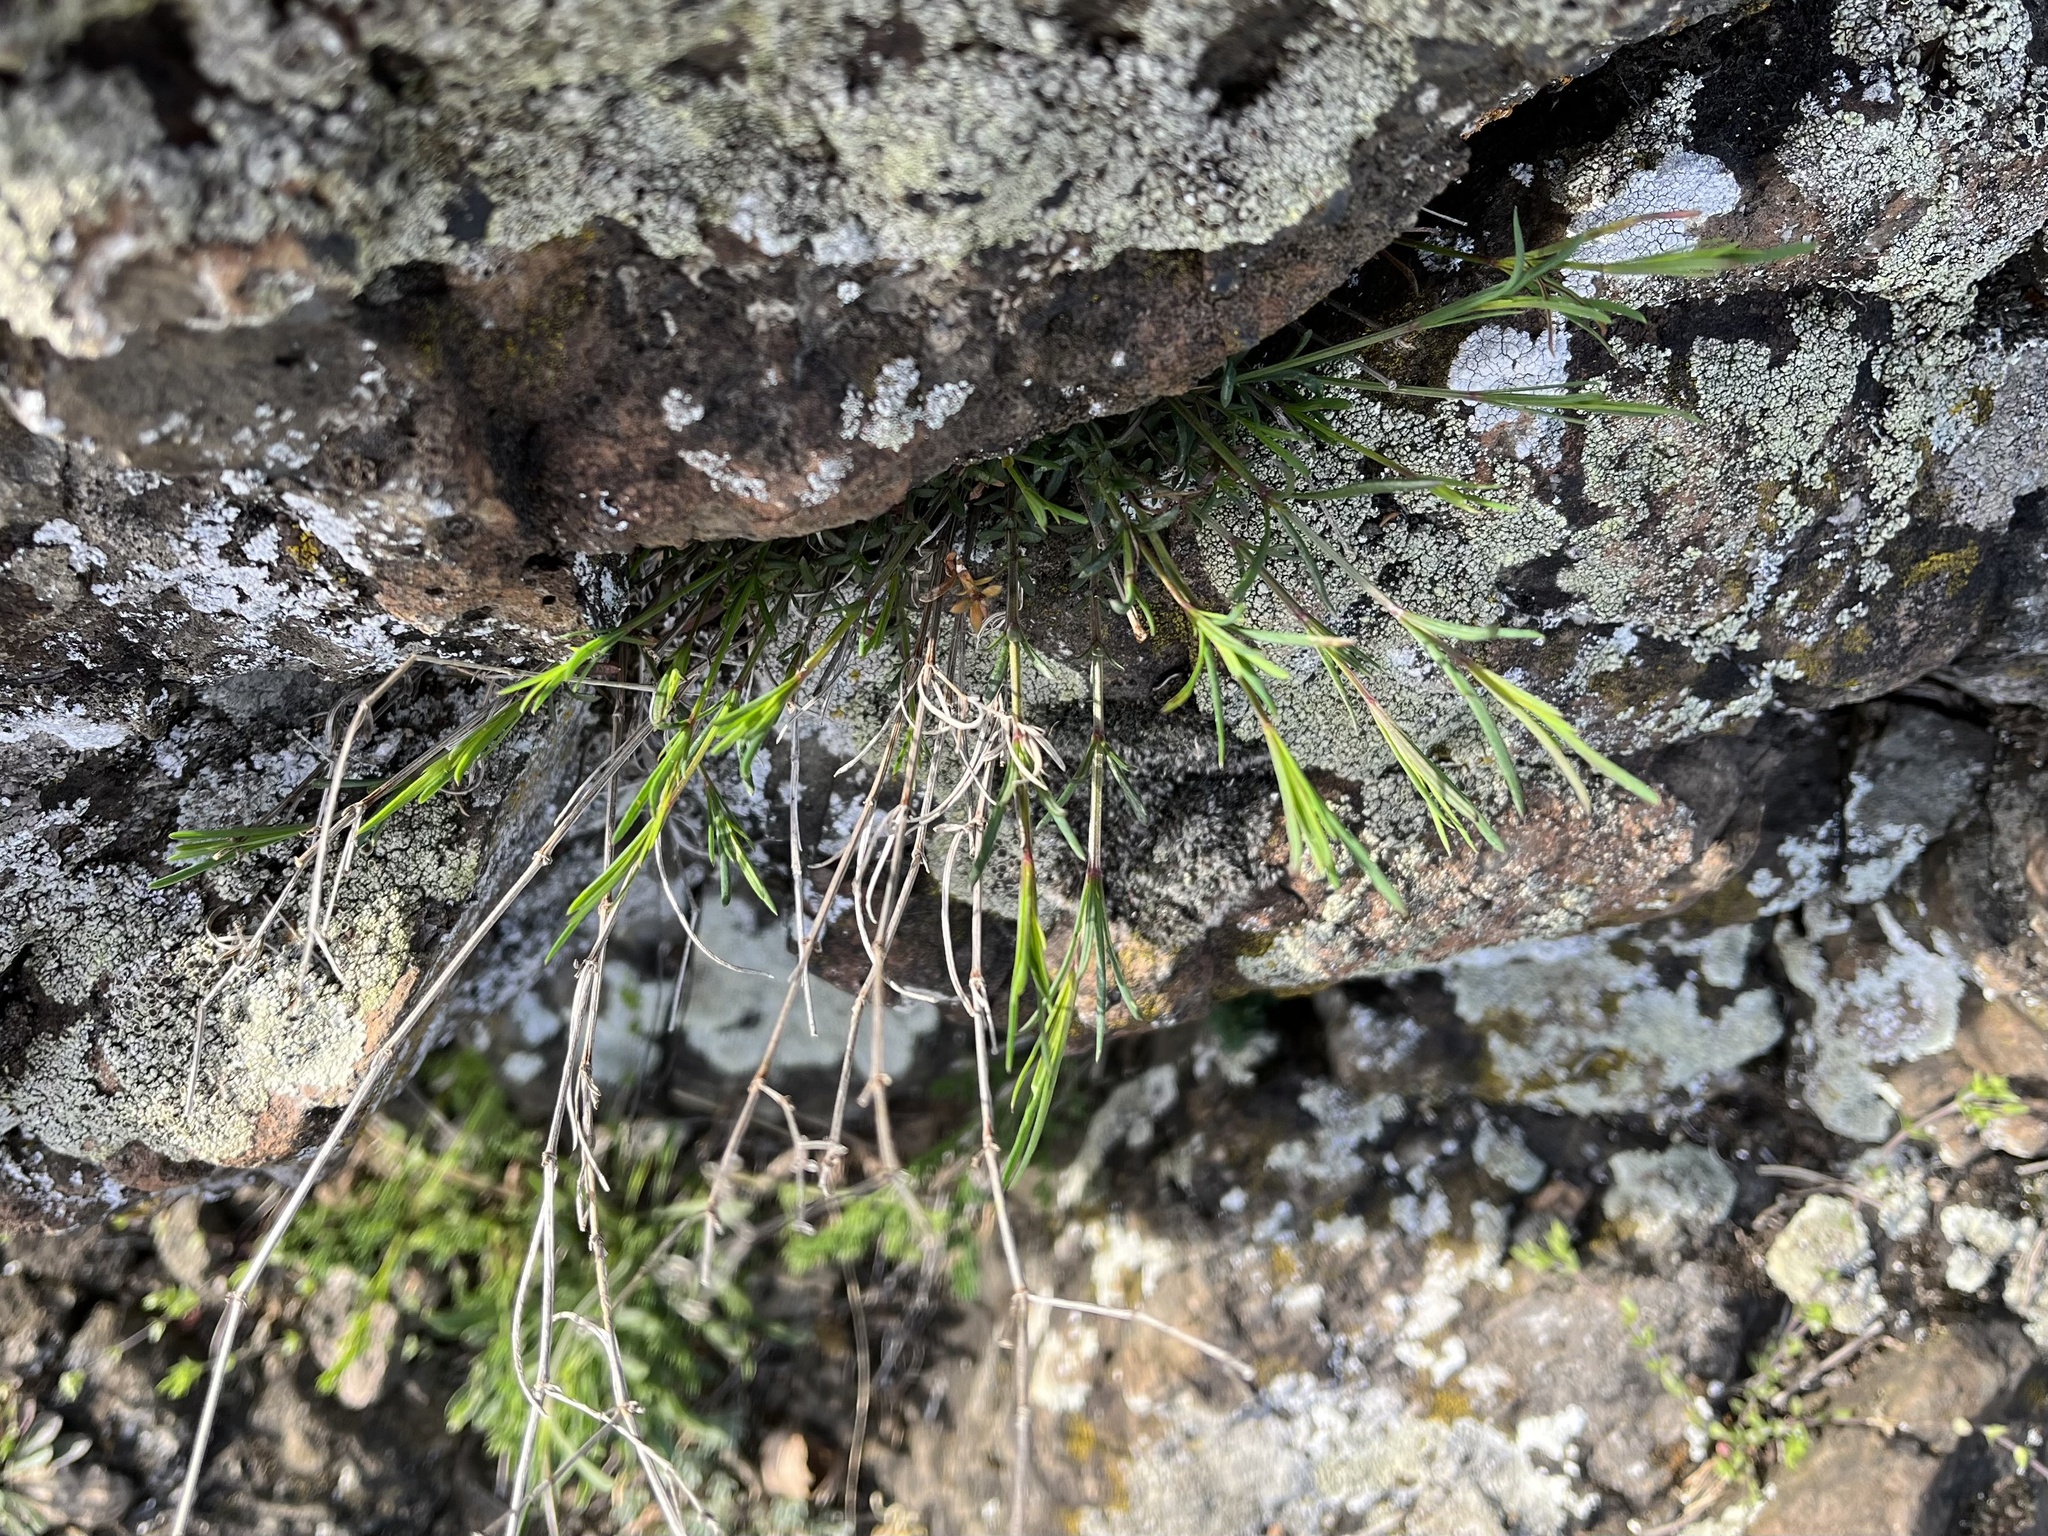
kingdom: Plantae
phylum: Tracheophyta
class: Magnoliopsida
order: Gentianales
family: Rubiaceae
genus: Cynanchica
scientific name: Cynanchica pyrenaica
